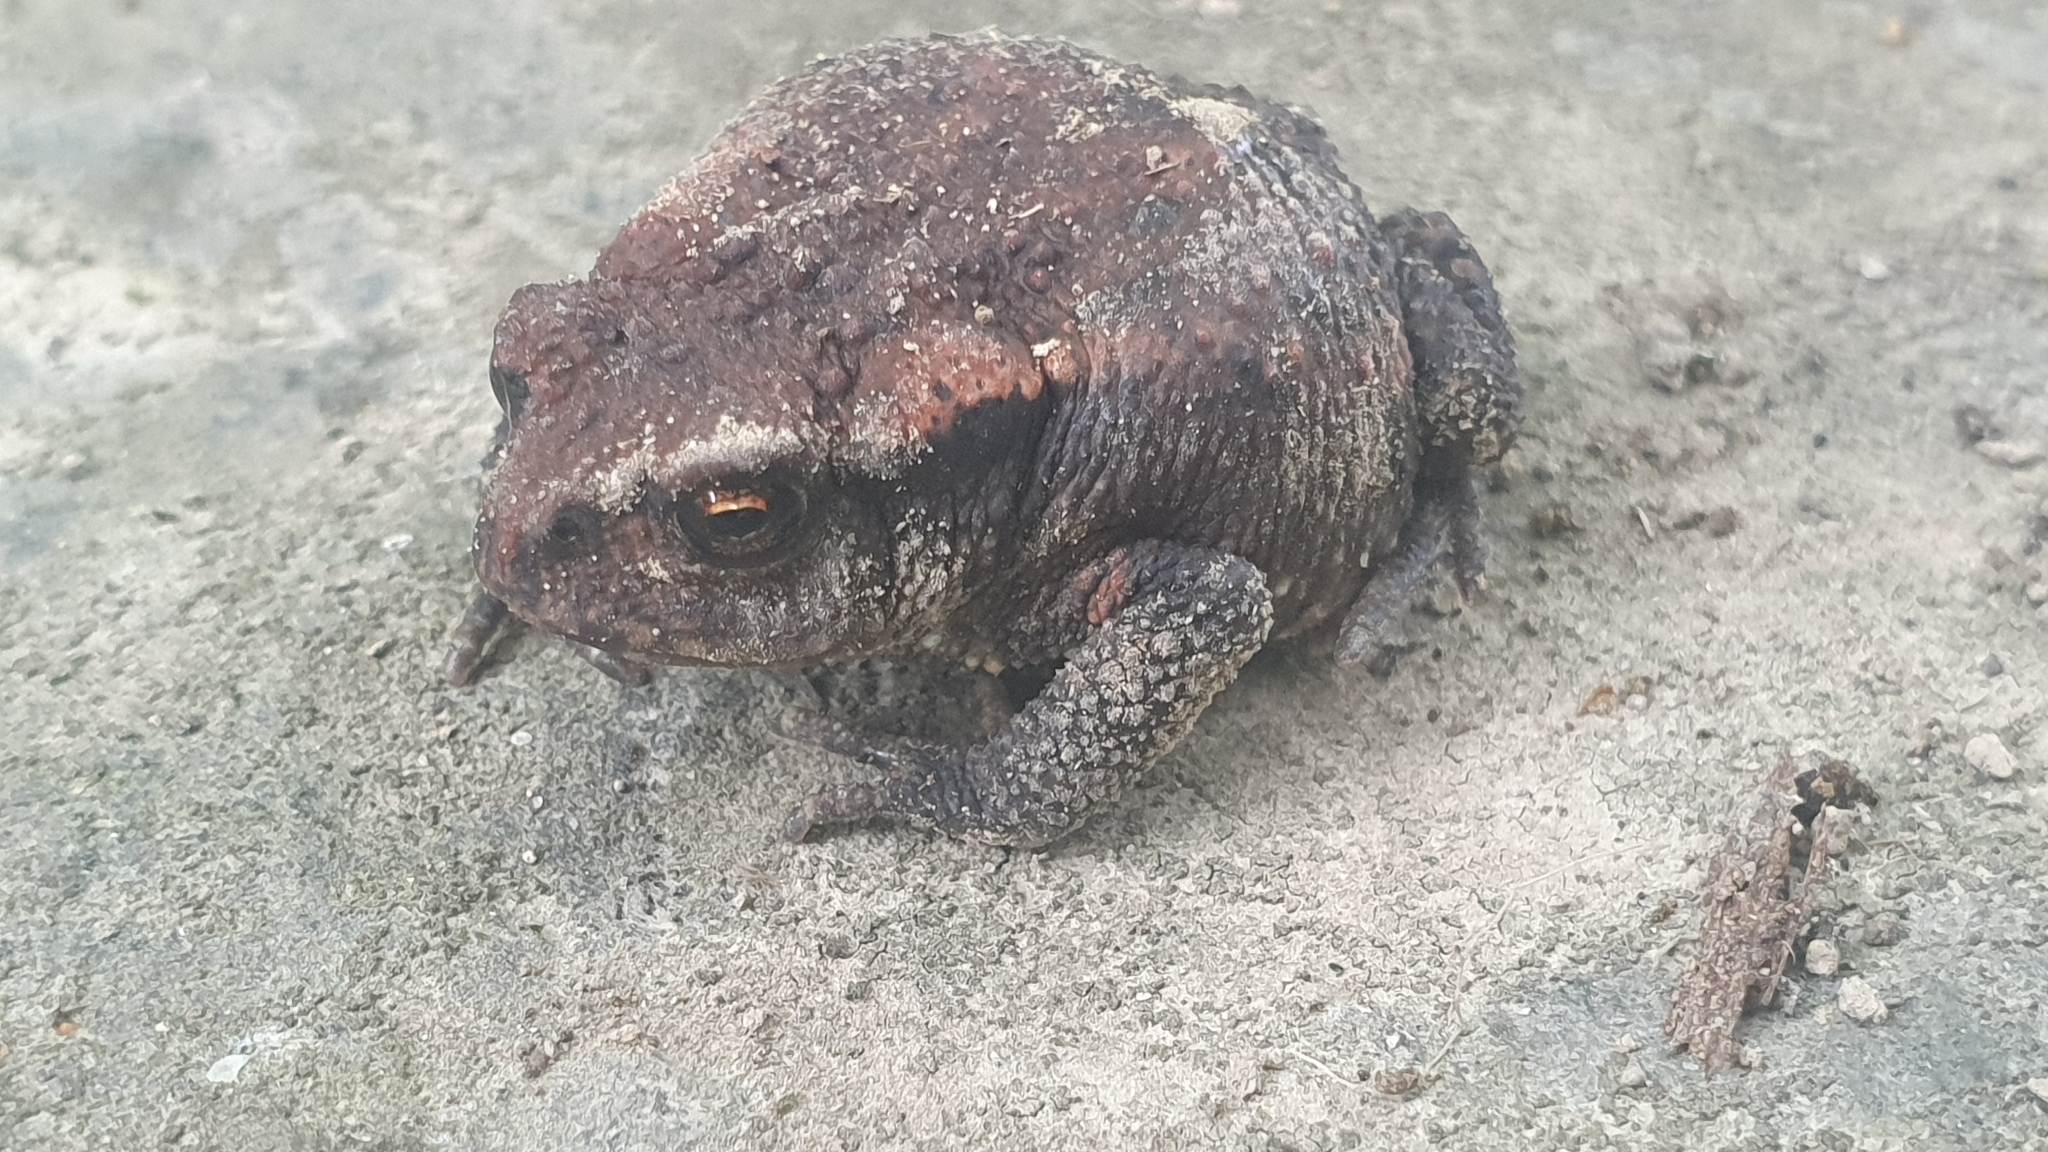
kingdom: Animalia
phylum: Chordata
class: Amphibia
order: Anura
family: Bufonidae
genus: Bufo
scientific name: Bufo spinosus
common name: Western common toad
